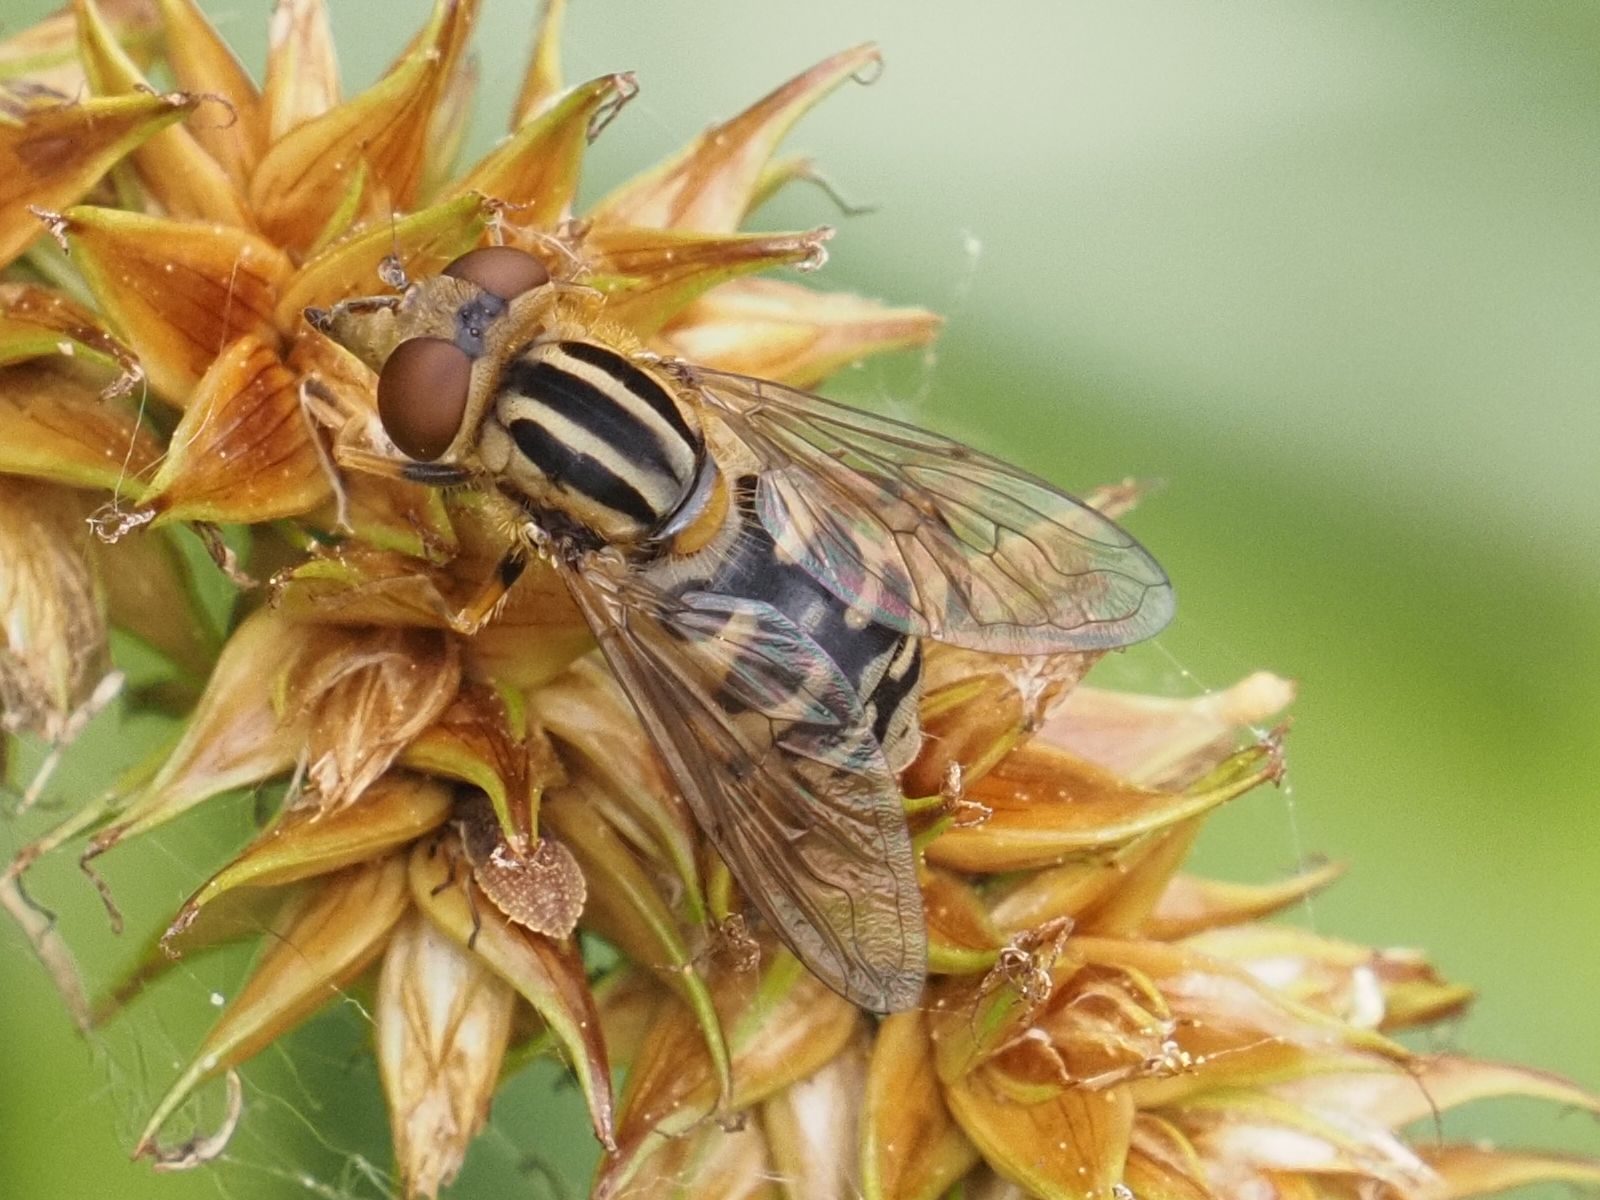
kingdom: Animalia
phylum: Arthropoda
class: Insecta
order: Diptera
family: Syrphidae
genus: Eurimyia
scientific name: Eurimyia lineatus
